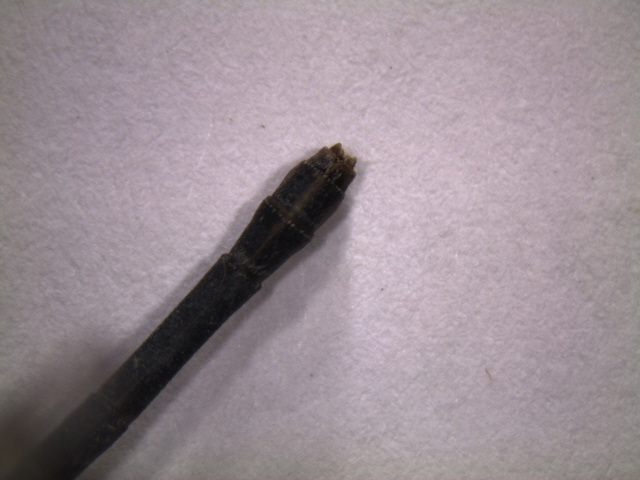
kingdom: Animalia
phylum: Arthropoda
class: Insecta
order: Odonata
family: Coenagrionidae
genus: Argia
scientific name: Argia apicalis
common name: Blue-fronted dancer
